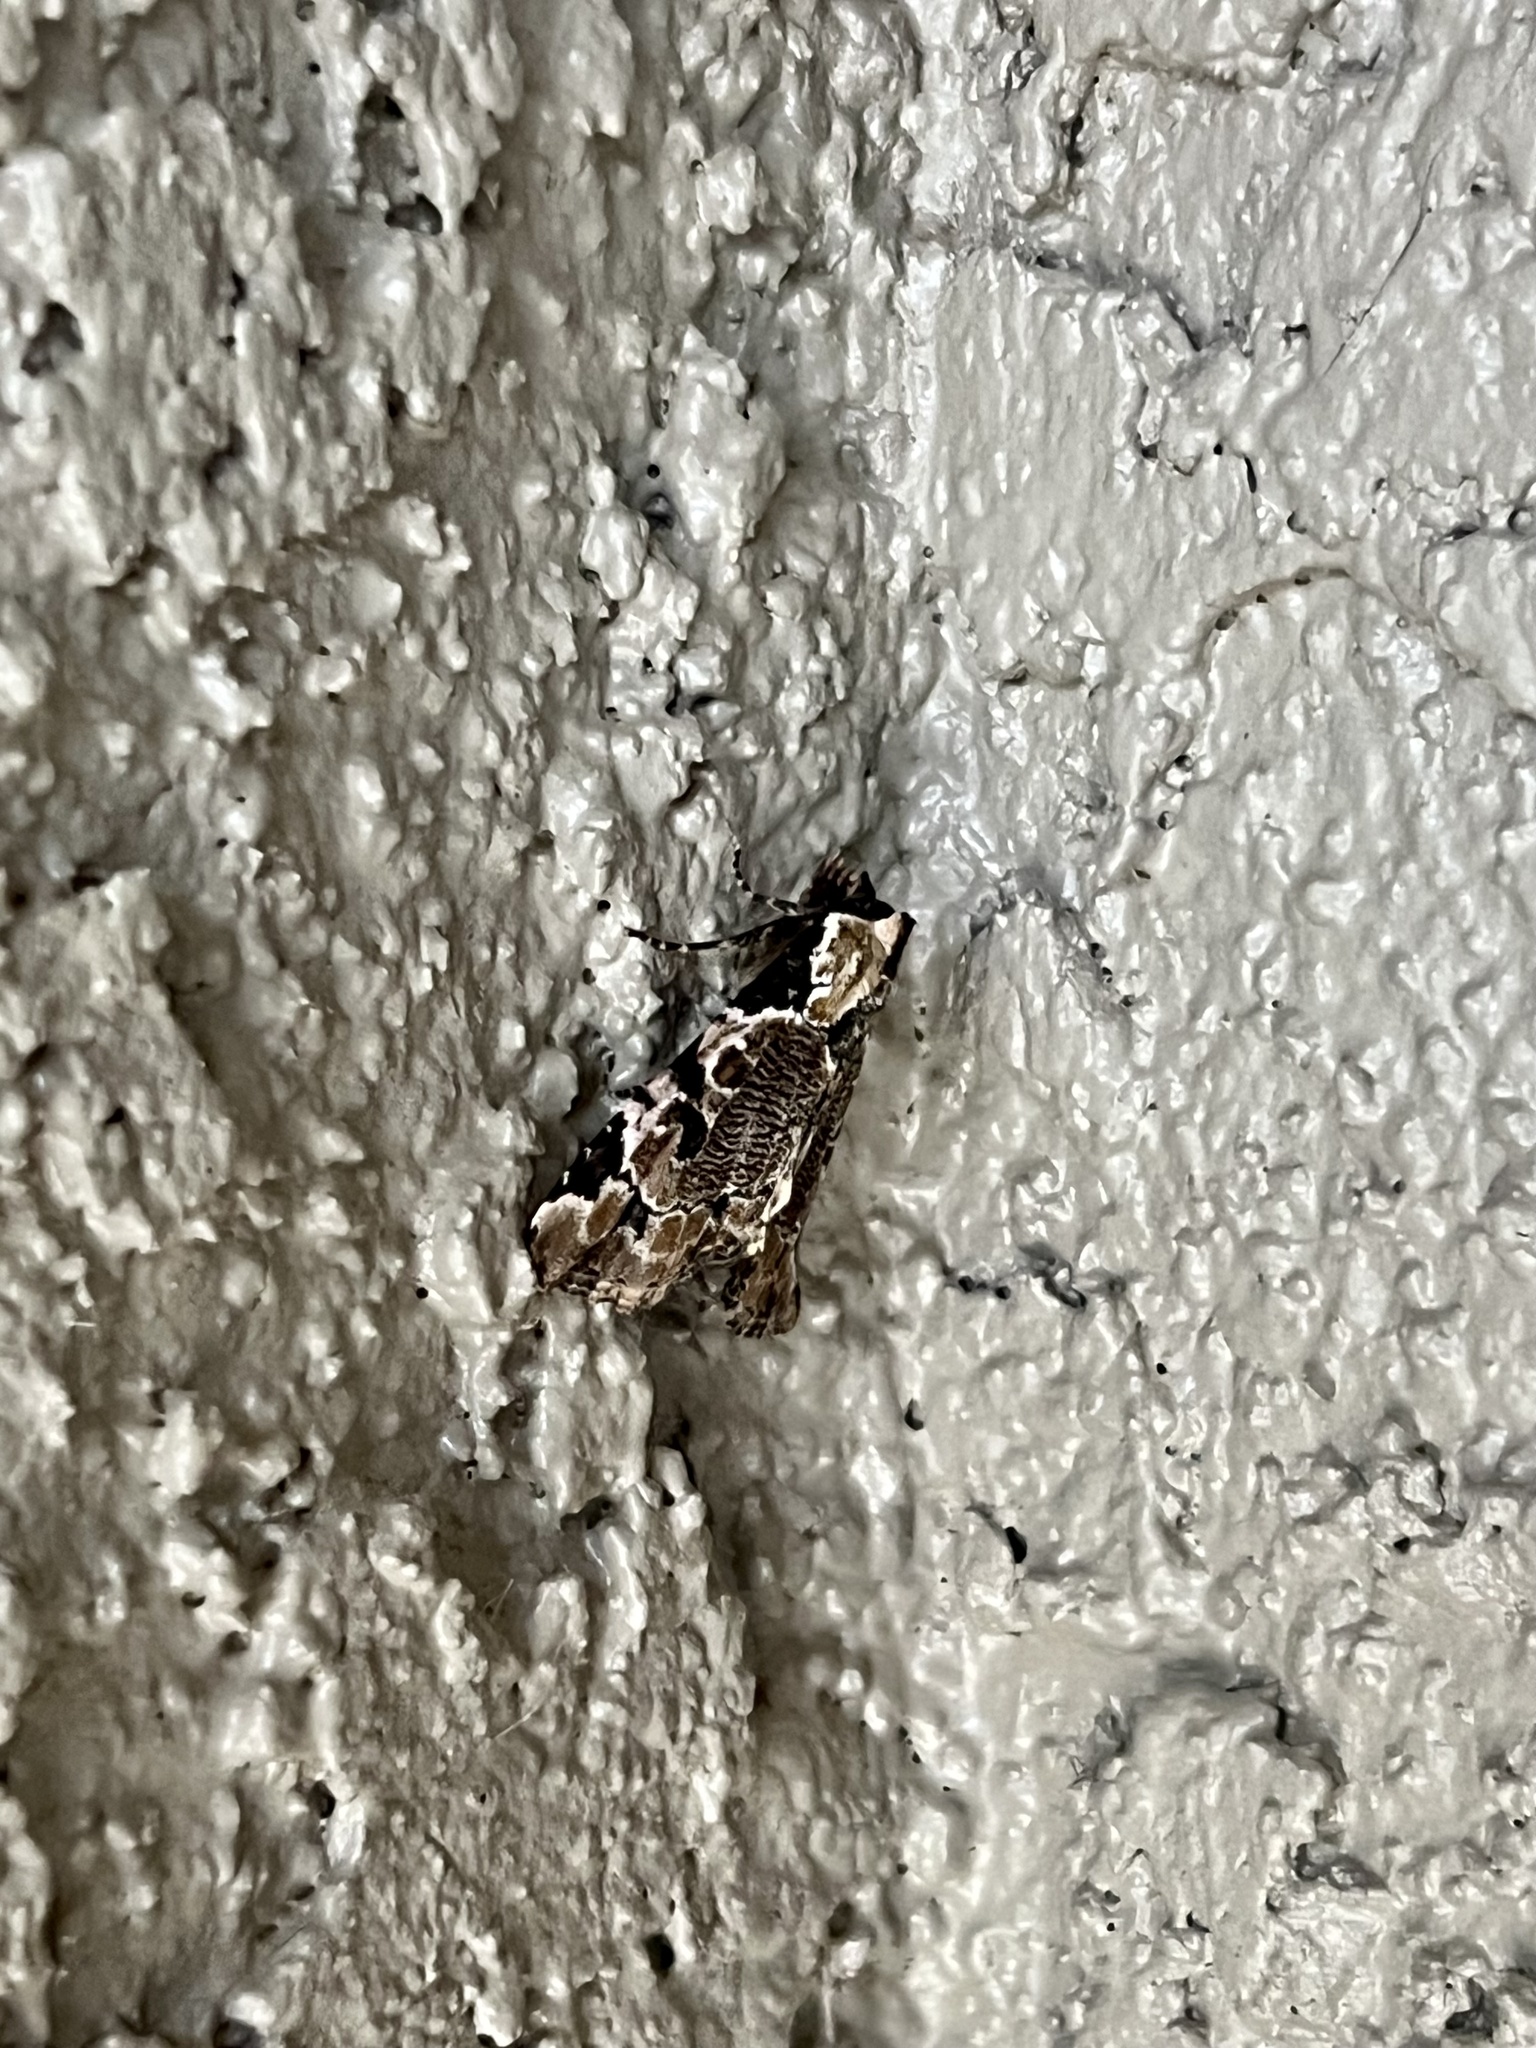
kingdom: Animalia
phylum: Arthropoda
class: Insecta
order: Lepidoptera
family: Noctuidae
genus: Stibaera
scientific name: Stibaera thyatiroides
